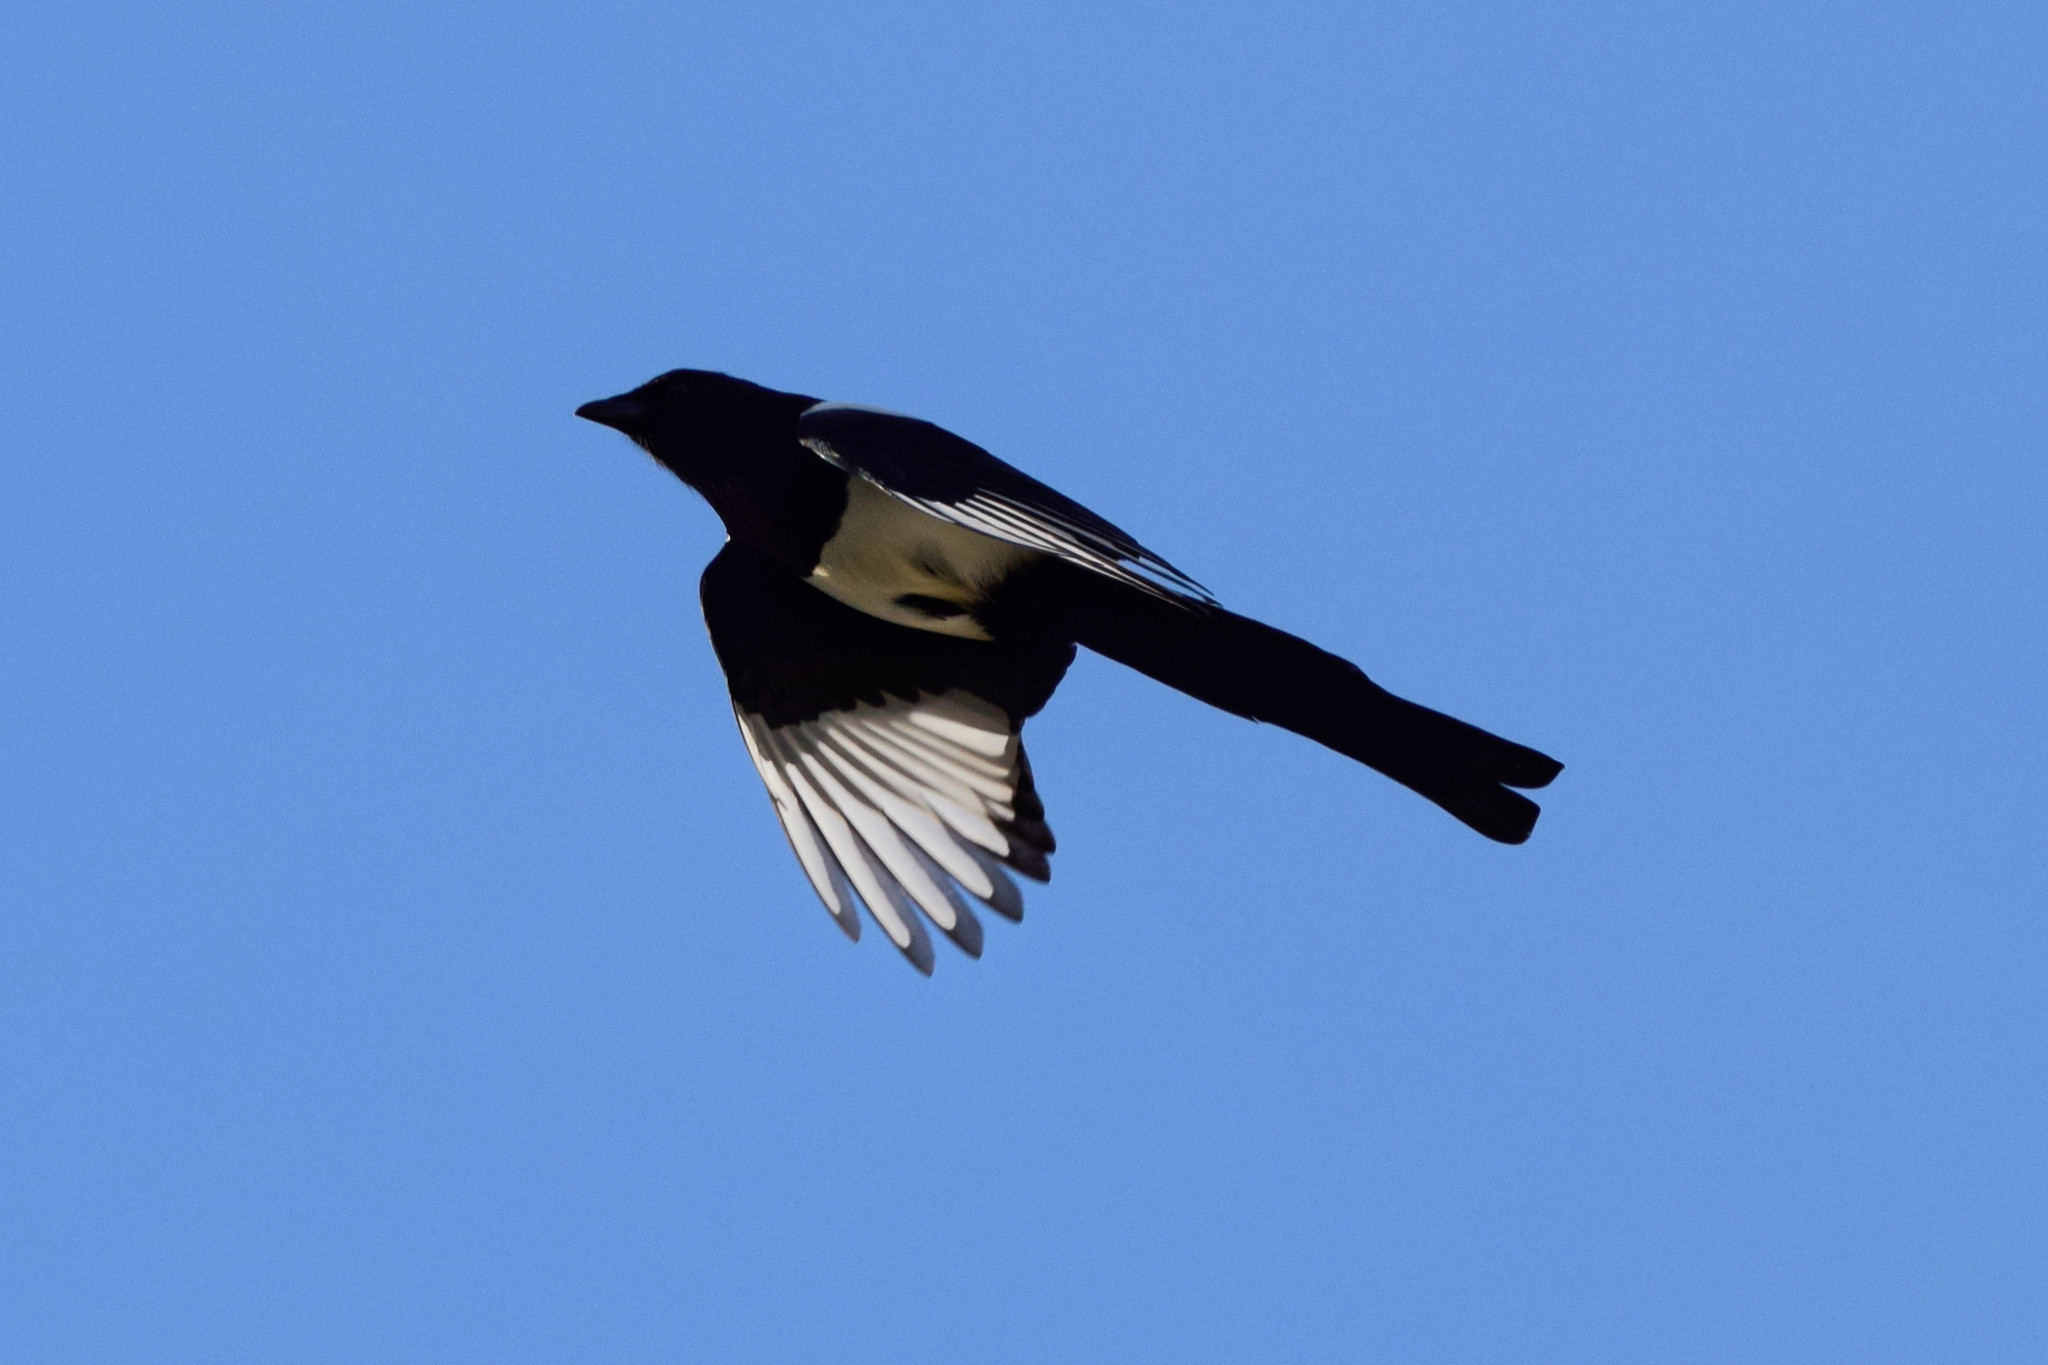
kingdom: Animalia
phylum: Chordata
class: Aves
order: Passeriformes
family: Corvidae
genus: Pica
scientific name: Pica pica
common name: Eurasian magpie
